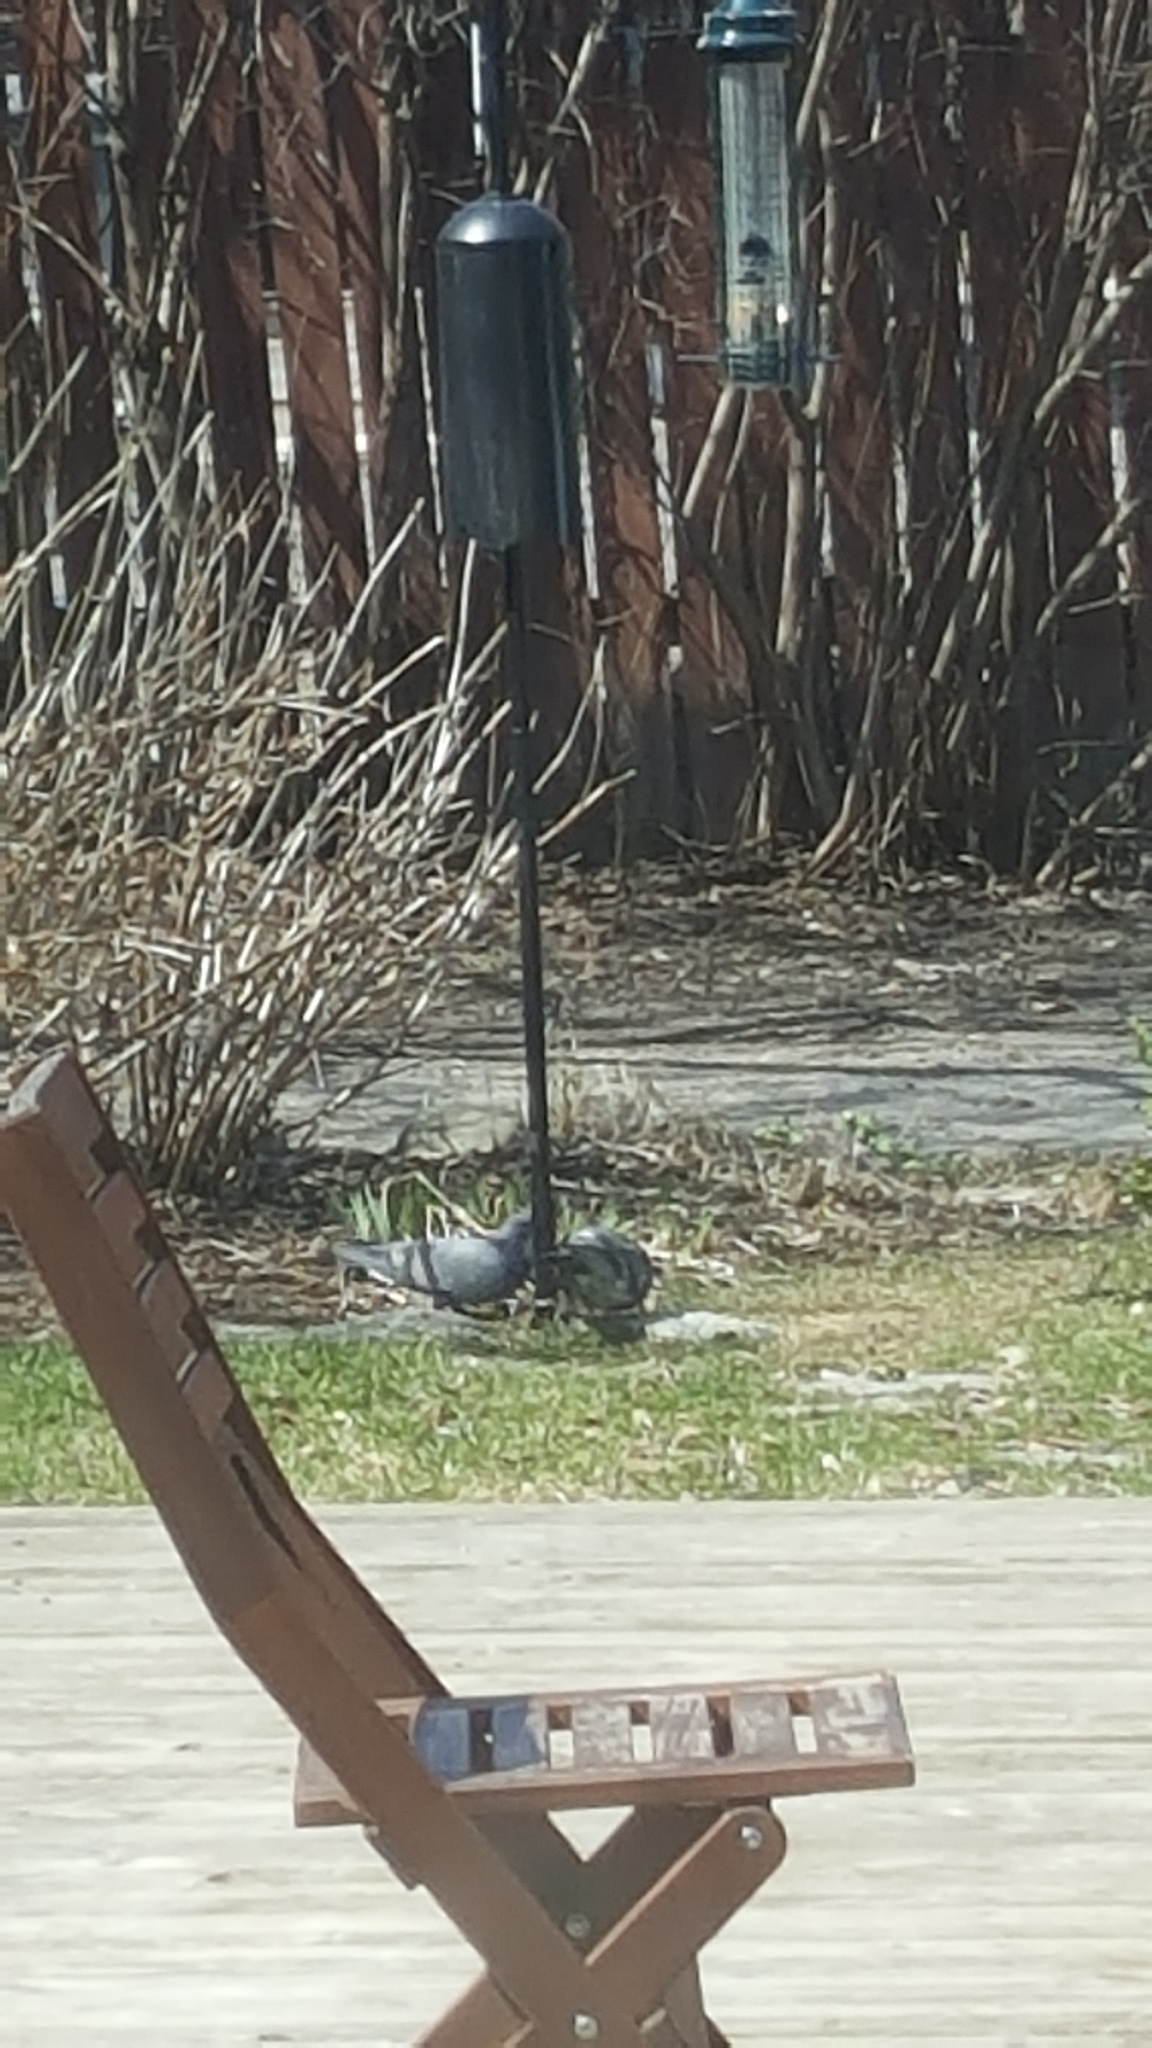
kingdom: Animalia
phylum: Chordata
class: Aves
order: Columbiformes
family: Columbidae
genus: Columba
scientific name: Columba livia
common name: Rock pigeon
